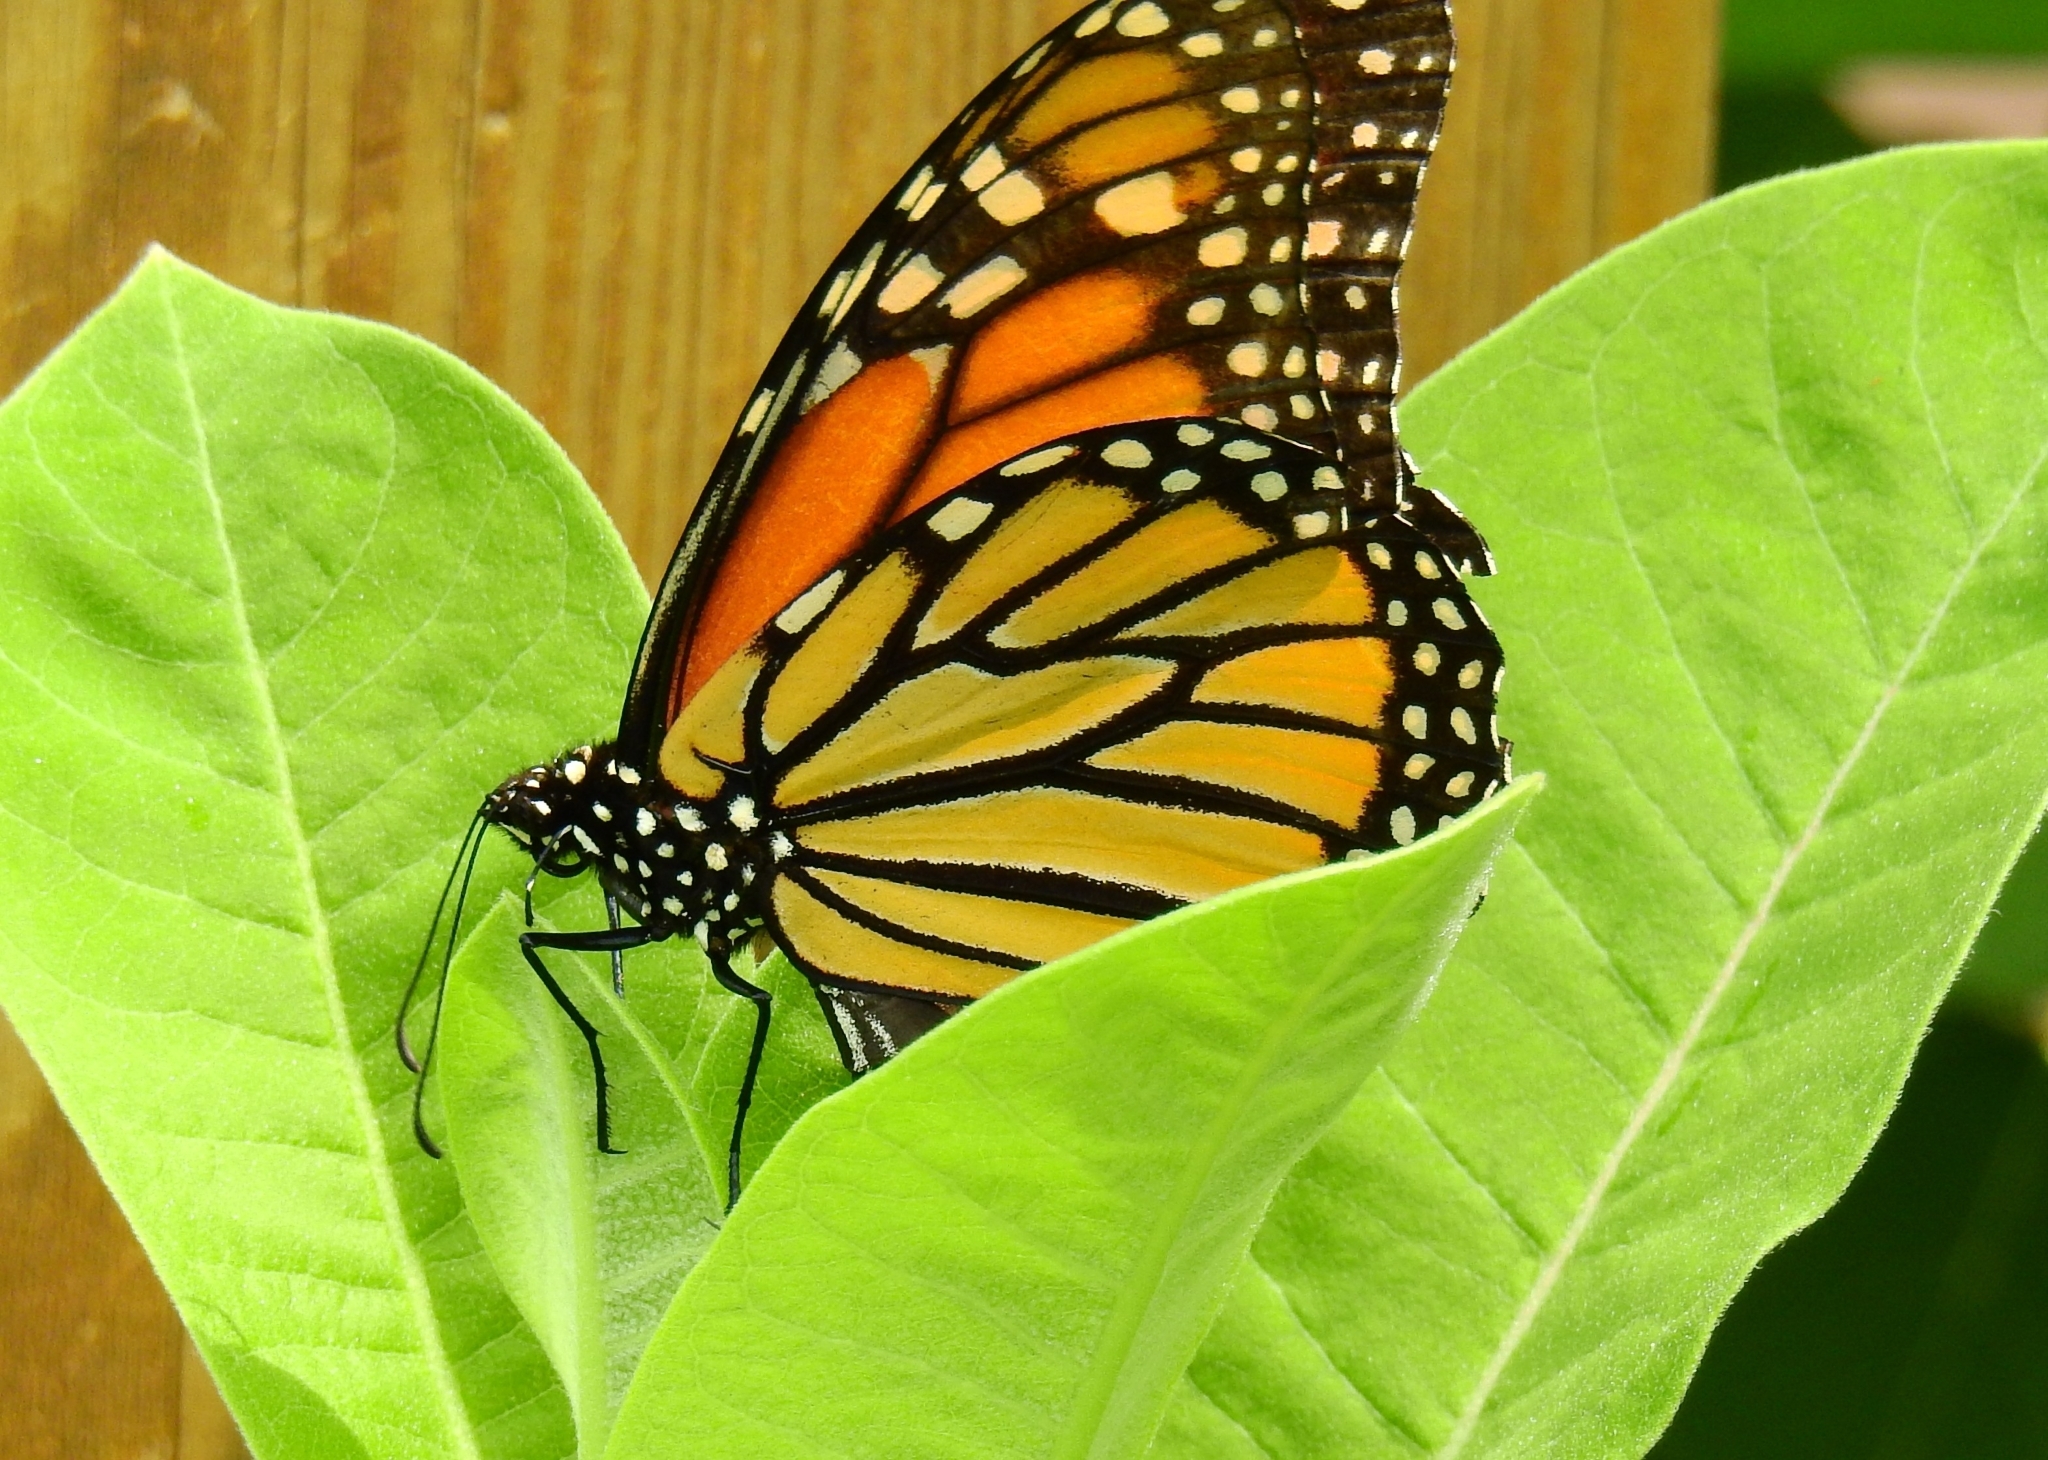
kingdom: Animalia
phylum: Arthropoda
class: Insecta
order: Lepidoptera
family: Nymphalidae
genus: Danaus
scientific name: Danaus plexippus
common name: Monarch
